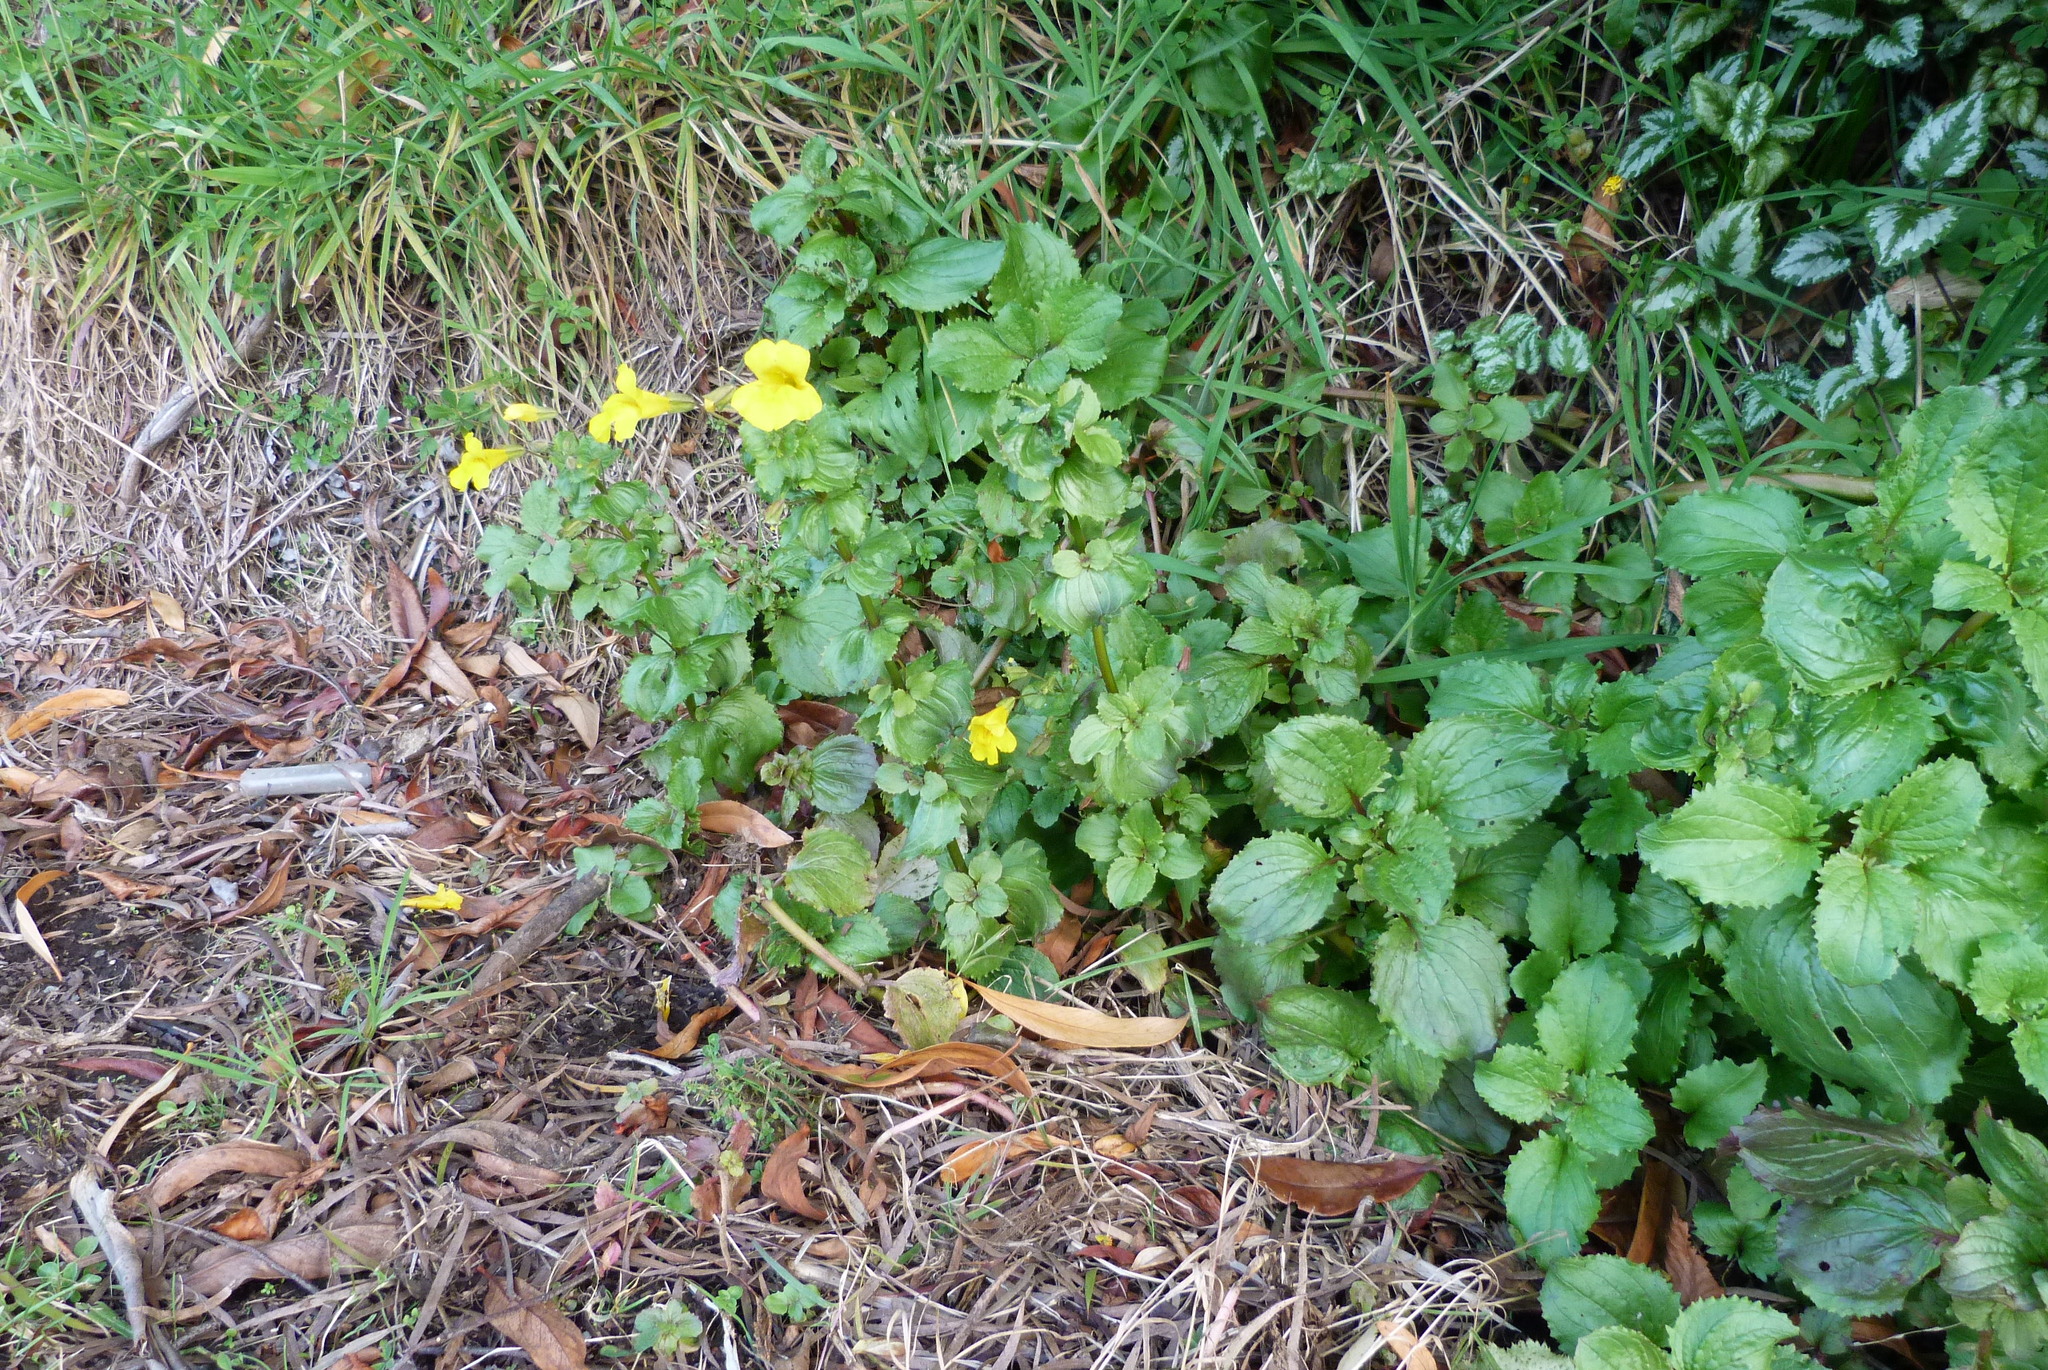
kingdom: Plantae
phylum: Tracheophyta
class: Magnoliopsida
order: Lamiales
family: Phrymaceae
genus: Erythranthe
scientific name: Erythranthe guttata
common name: Monkeyflower
